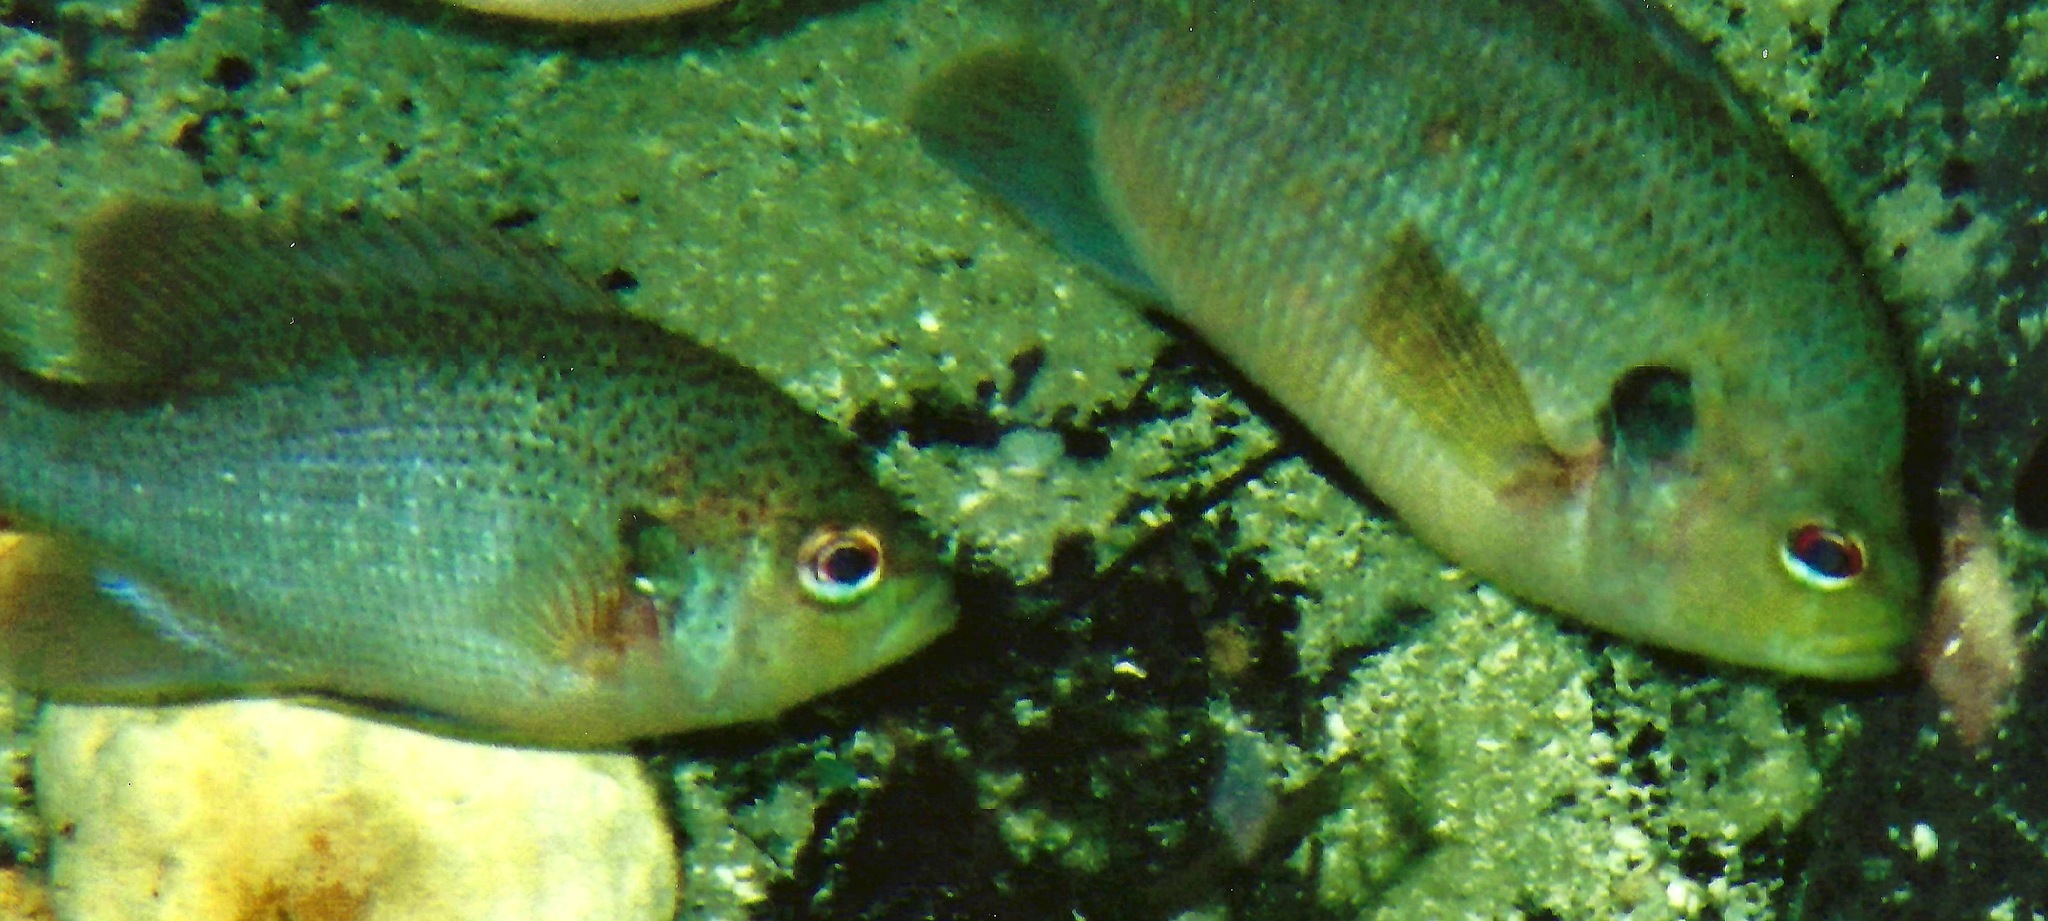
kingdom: Animalia
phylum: Chordata
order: Perciformes
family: Centrarchidae
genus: Lepomis
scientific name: Lepomis punctatus
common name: Spotted sunfish
